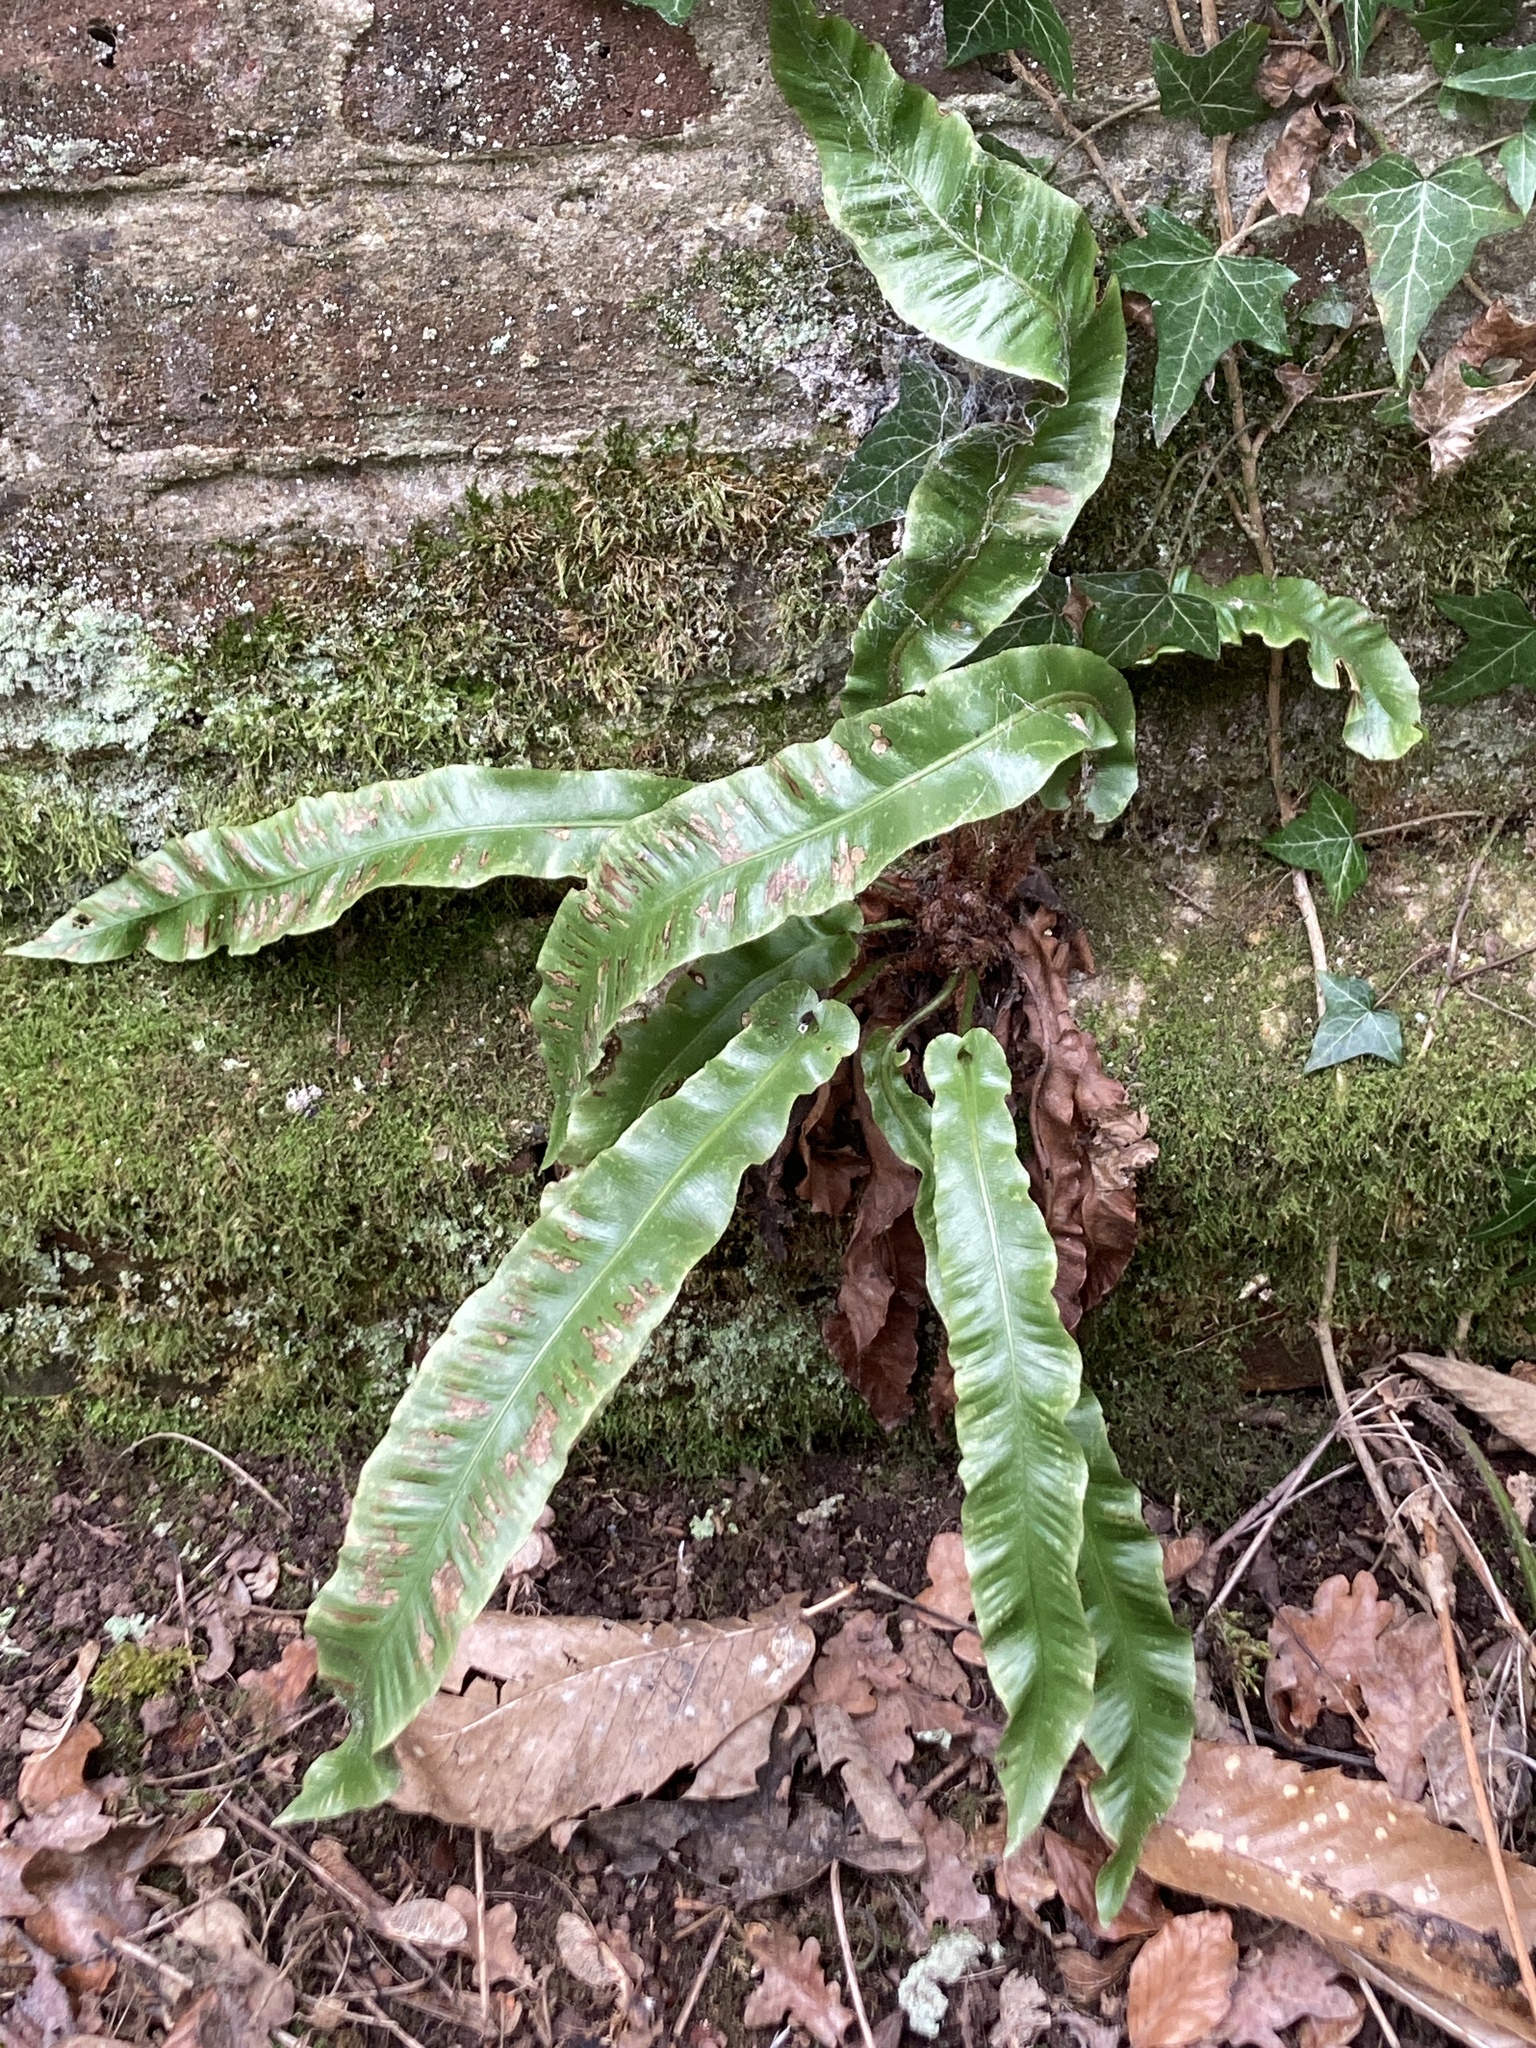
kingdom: Plantae
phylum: Tracheophyta
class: Polypodiopsida
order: Polypodiales
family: Aspleniaceae
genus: Asplenium
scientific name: Asplenium scolopendrium
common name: Hart's-tongue fern
